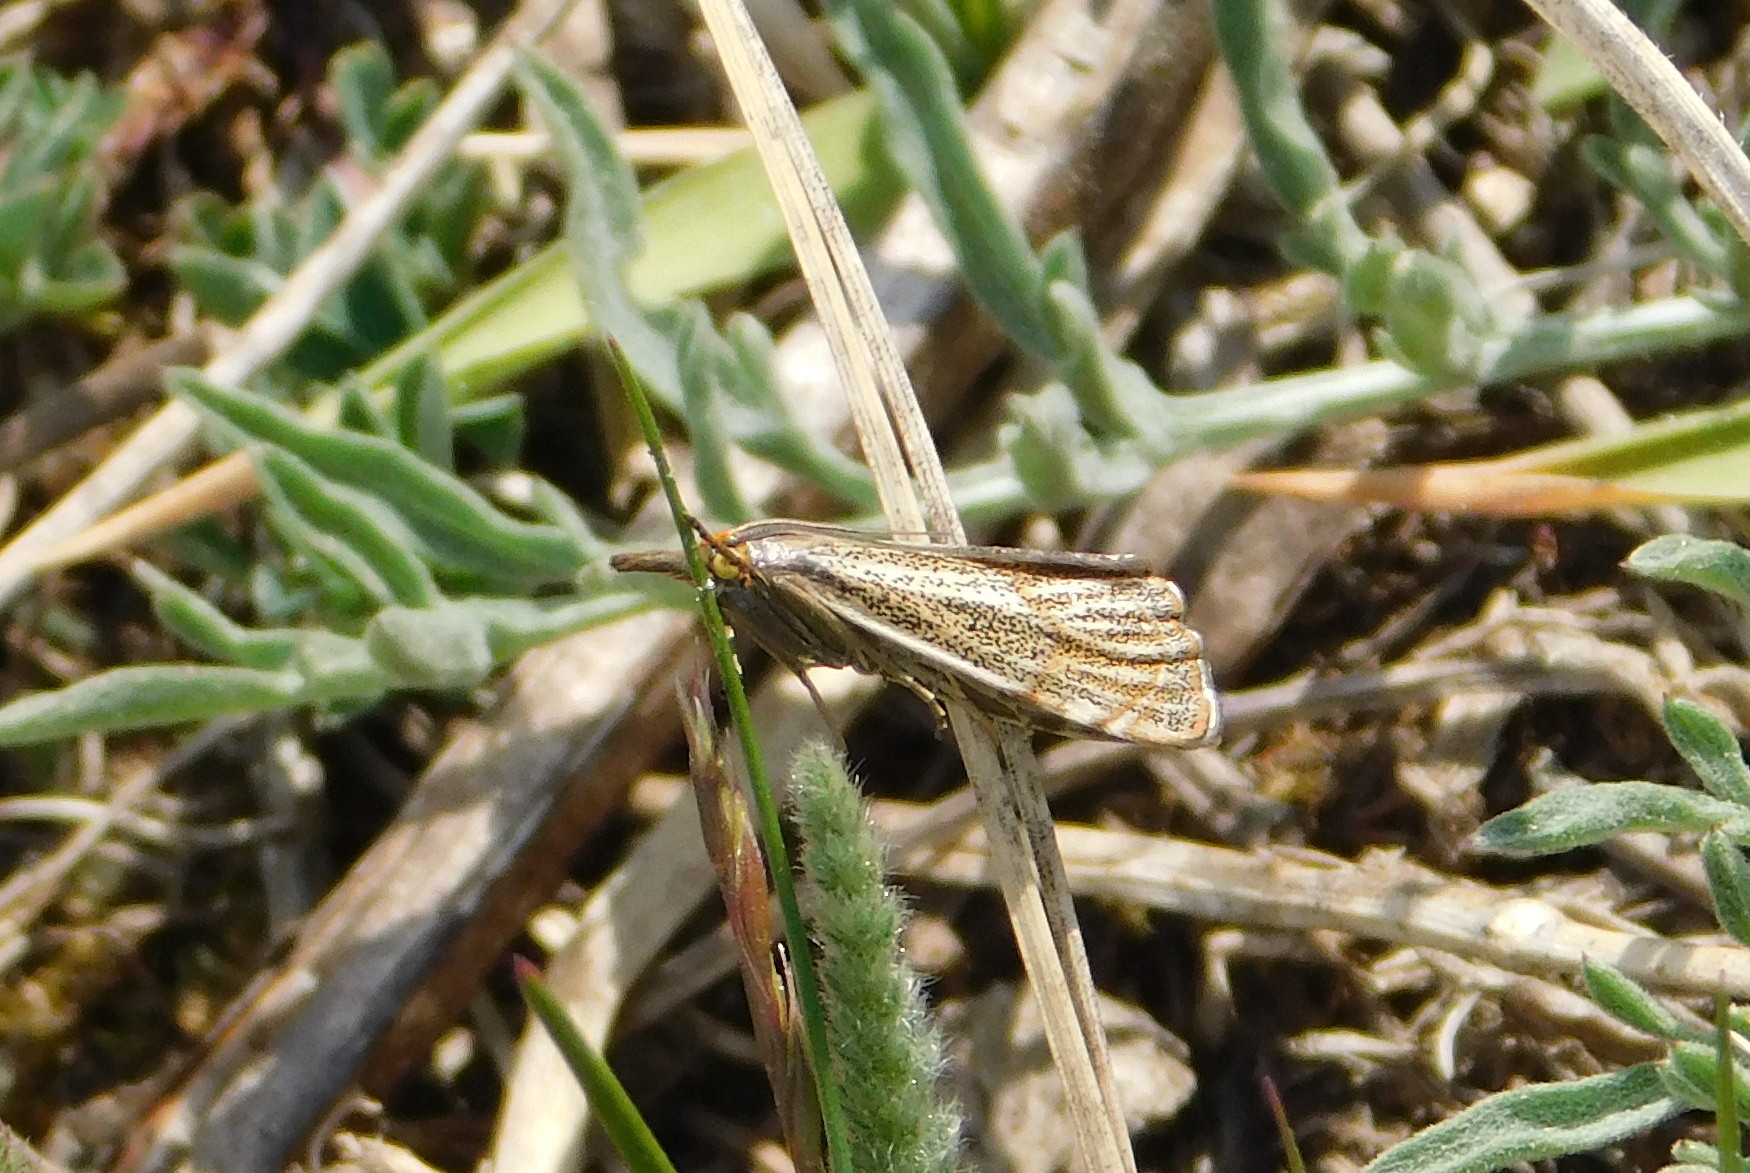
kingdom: Animalia
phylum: Arthropoda
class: Insecta
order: Lepidoptera
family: Crambidae
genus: Thisanotia
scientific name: Thisanotia chrysonuchella
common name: Powdered grass-veneer
